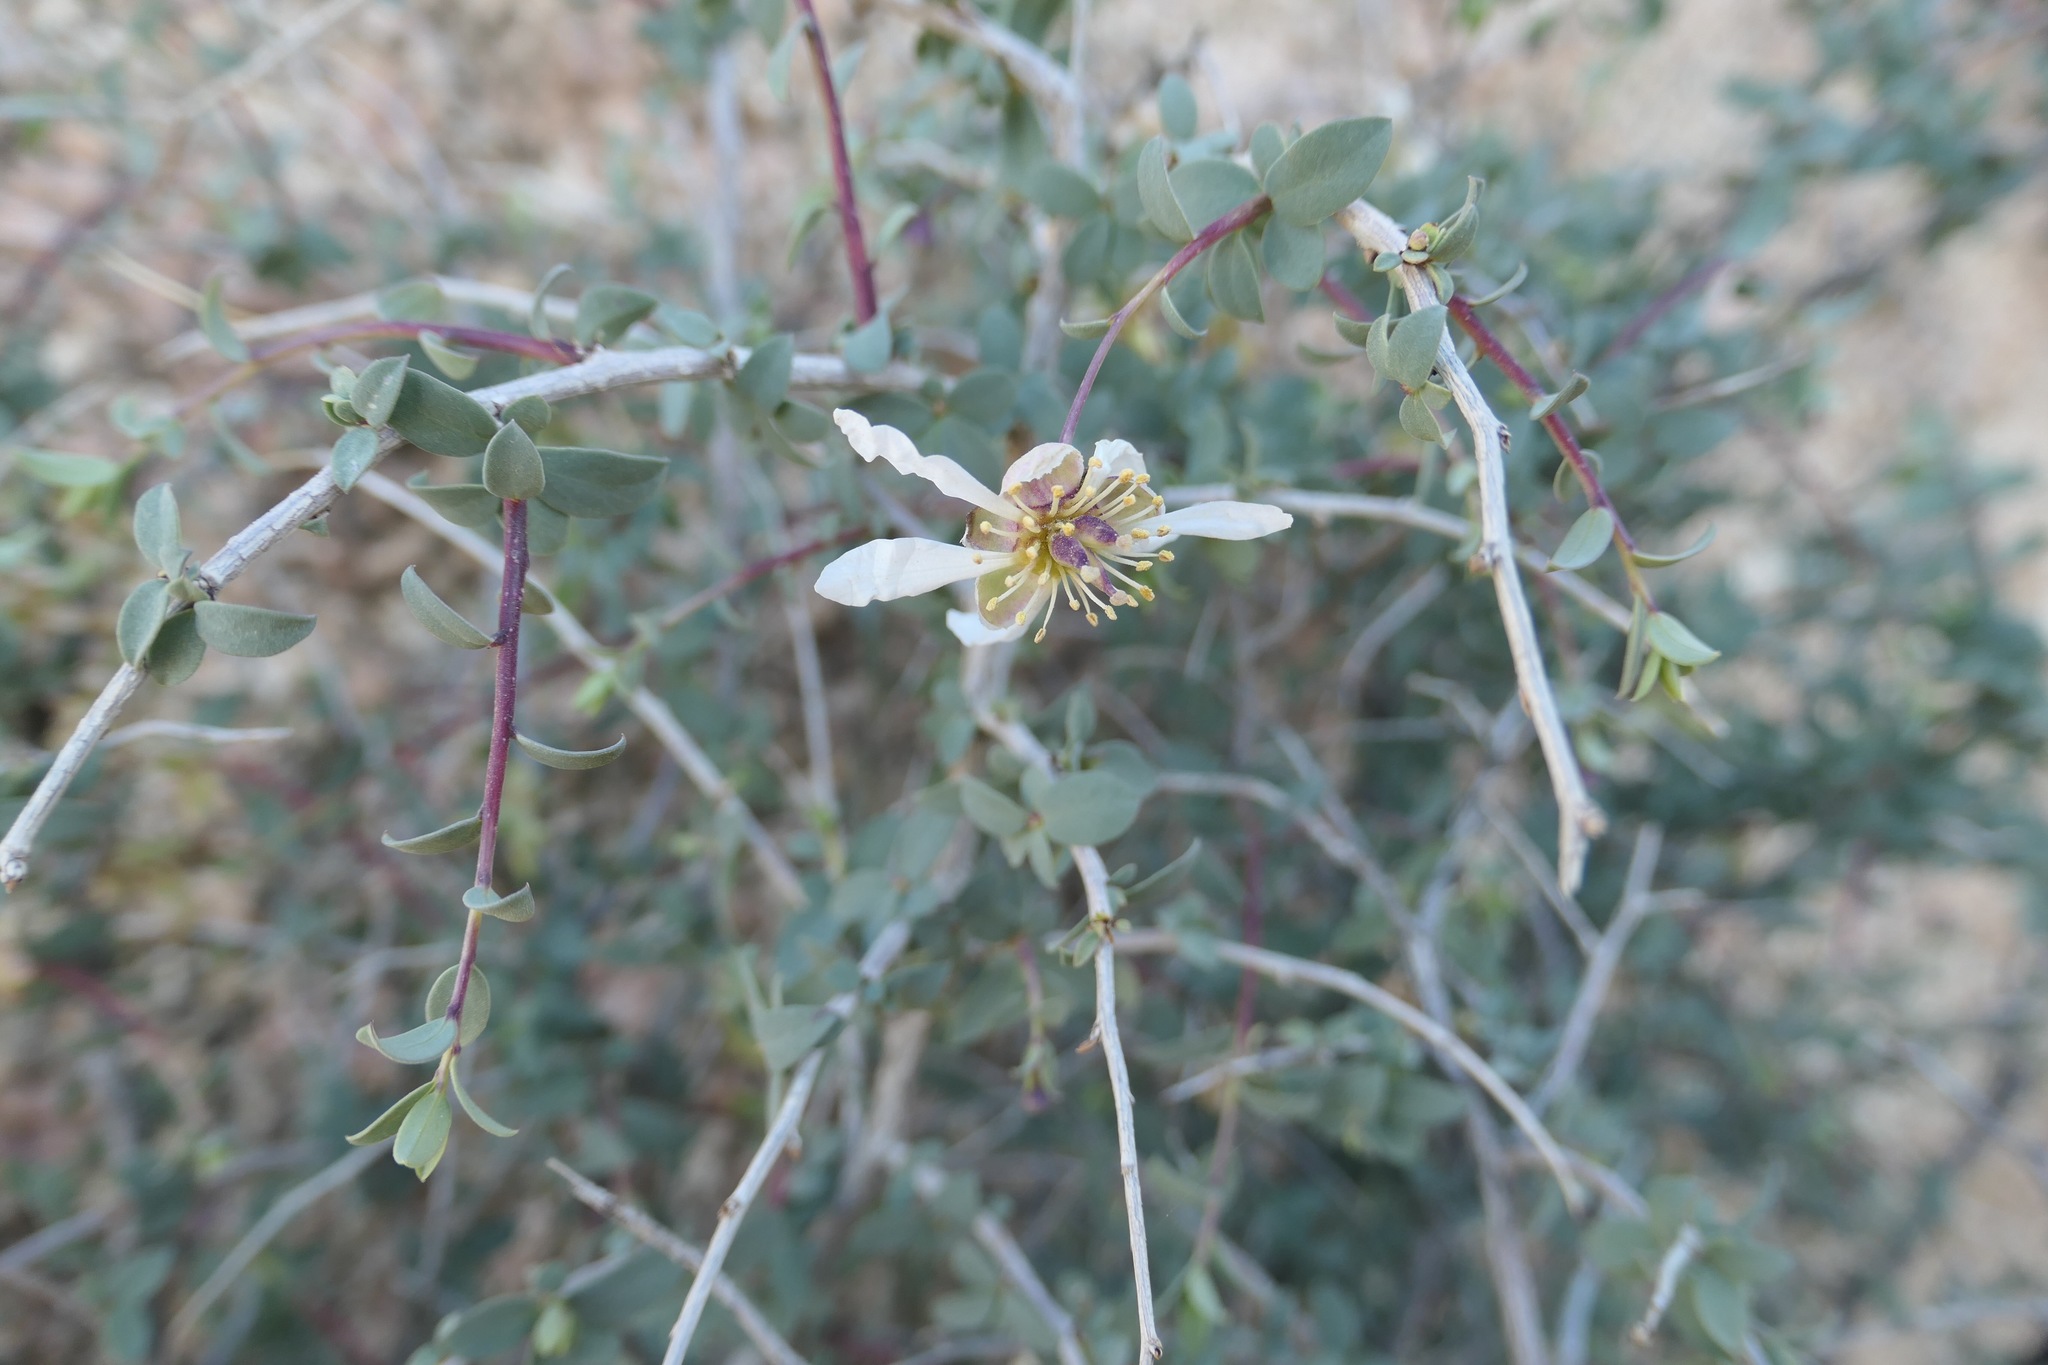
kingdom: Plantae
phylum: Tracheophyta
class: Magnoliopsida
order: Crossosomatales
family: Crossosomataceae
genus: Crossosoma
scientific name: Crossosoma bigelovii
